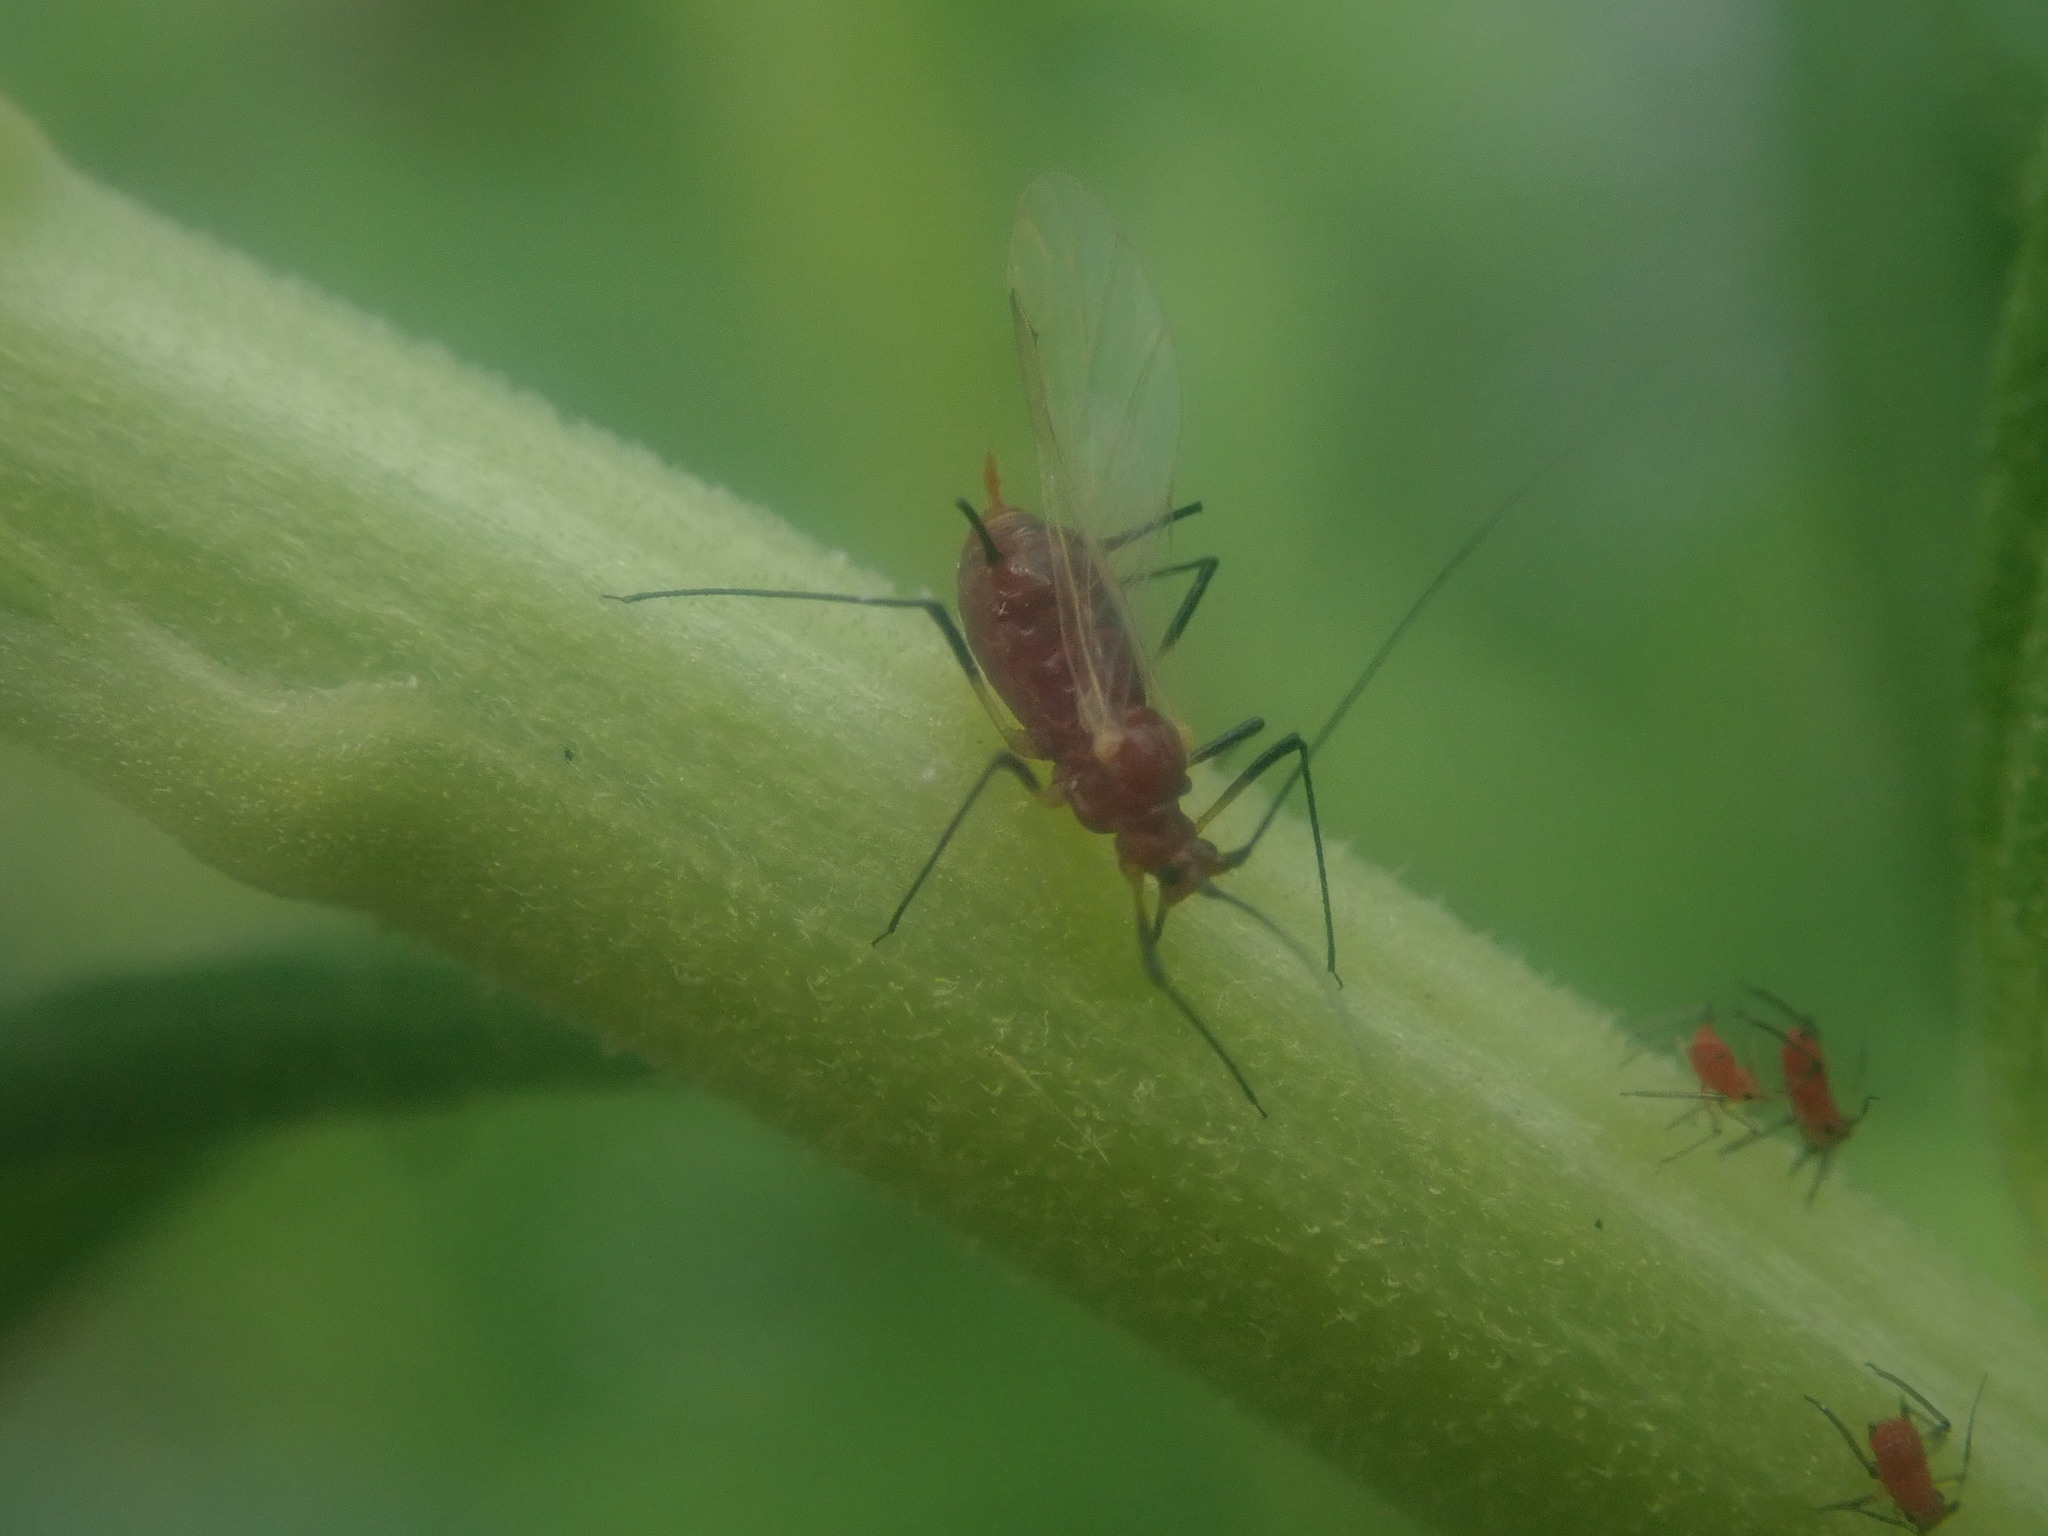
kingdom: Animalia
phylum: Arthropoda
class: Insecta
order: Hemiptera
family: Aphididae
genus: Uroleucon
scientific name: Uroleucon
